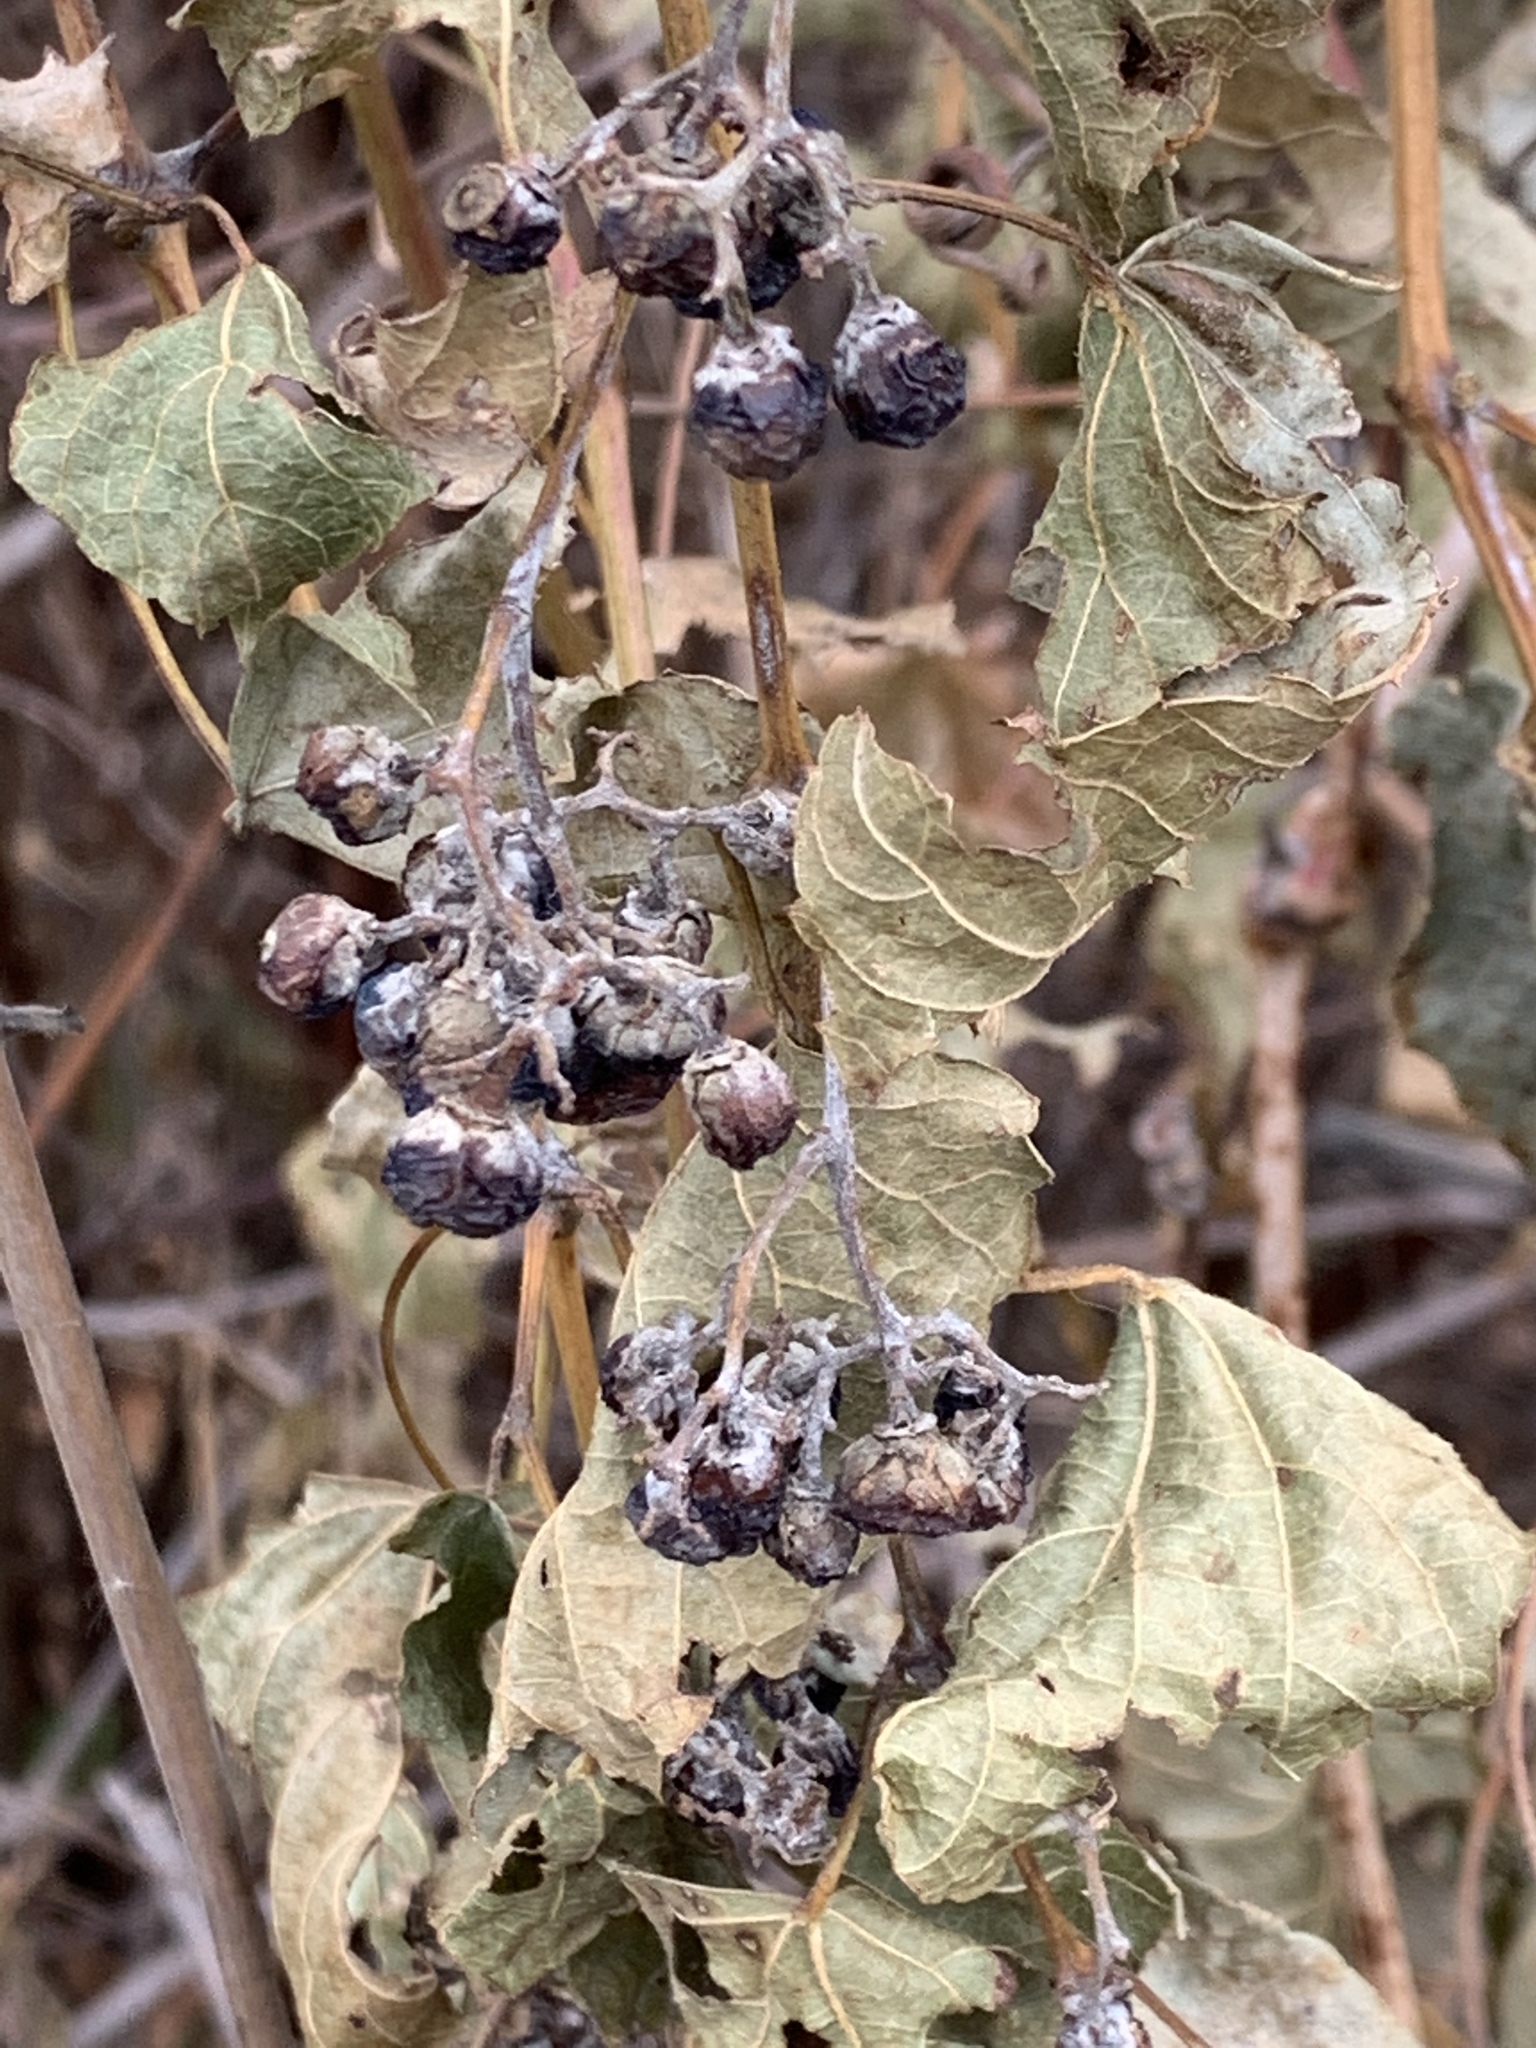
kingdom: Plantae
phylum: Tracheophyta
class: Magnoliopsida
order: Vitales
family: Vitaceae
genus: Ampelopsis
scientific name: Ampelopsis glandulosa
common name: Amur peppervine
